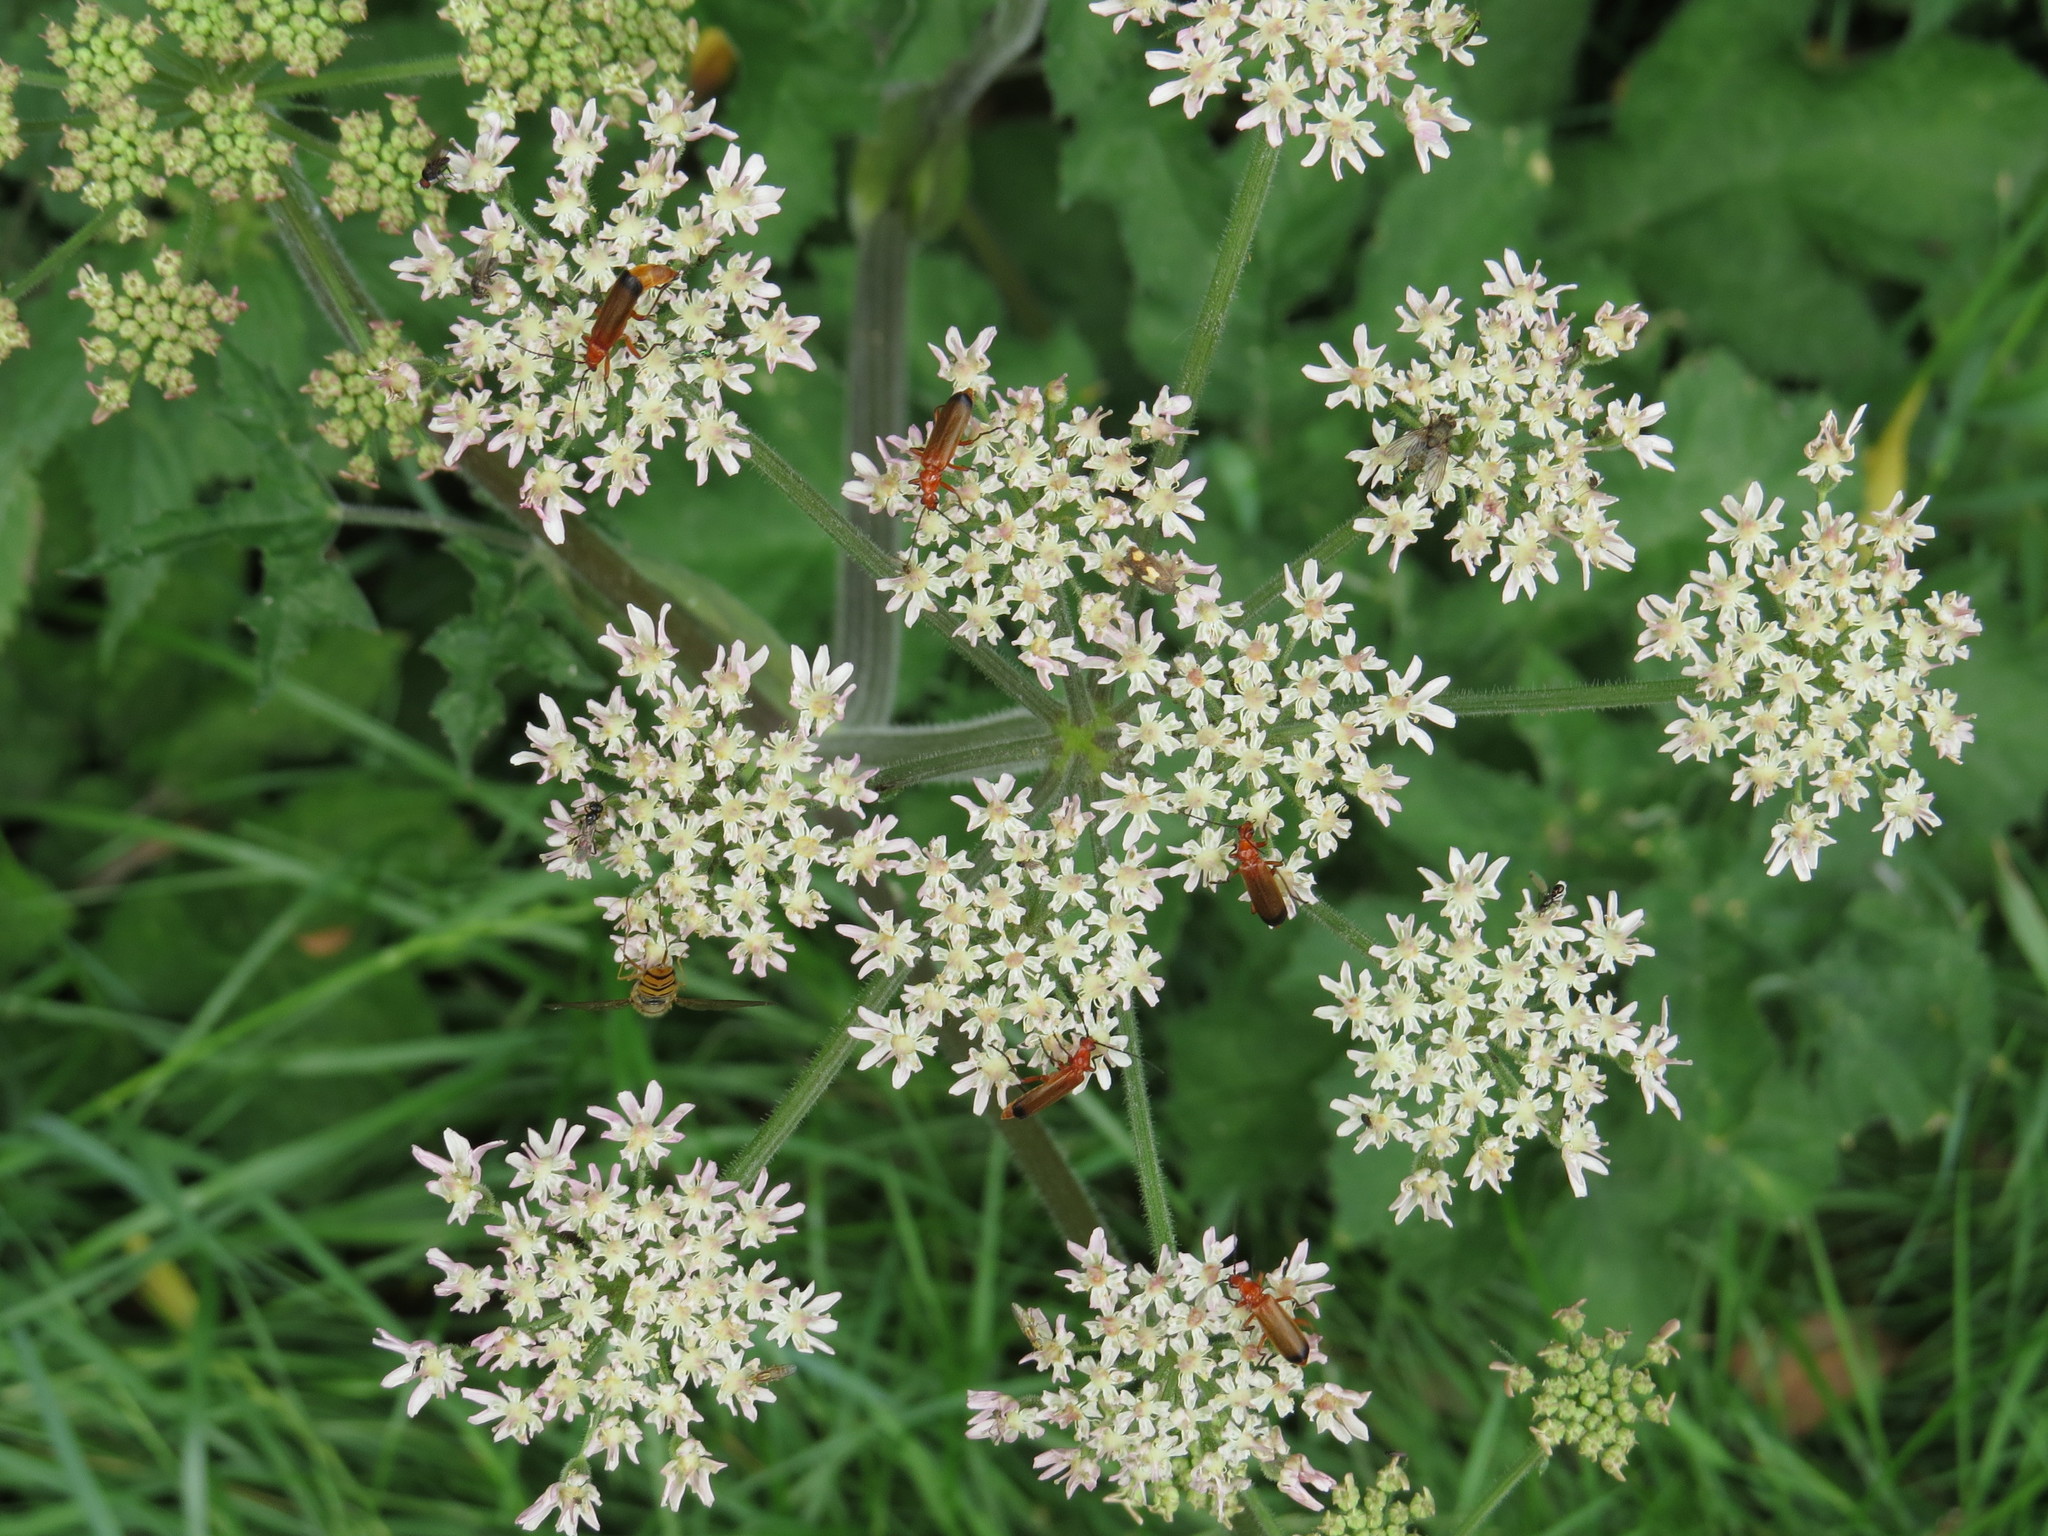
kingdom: Animalia
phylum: Arthropoda
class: Insecta
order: Coleoptera
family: Cantharidae
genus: Rhagonycha
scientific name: Rhagonycha fulva
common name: Common red soldier beetle
